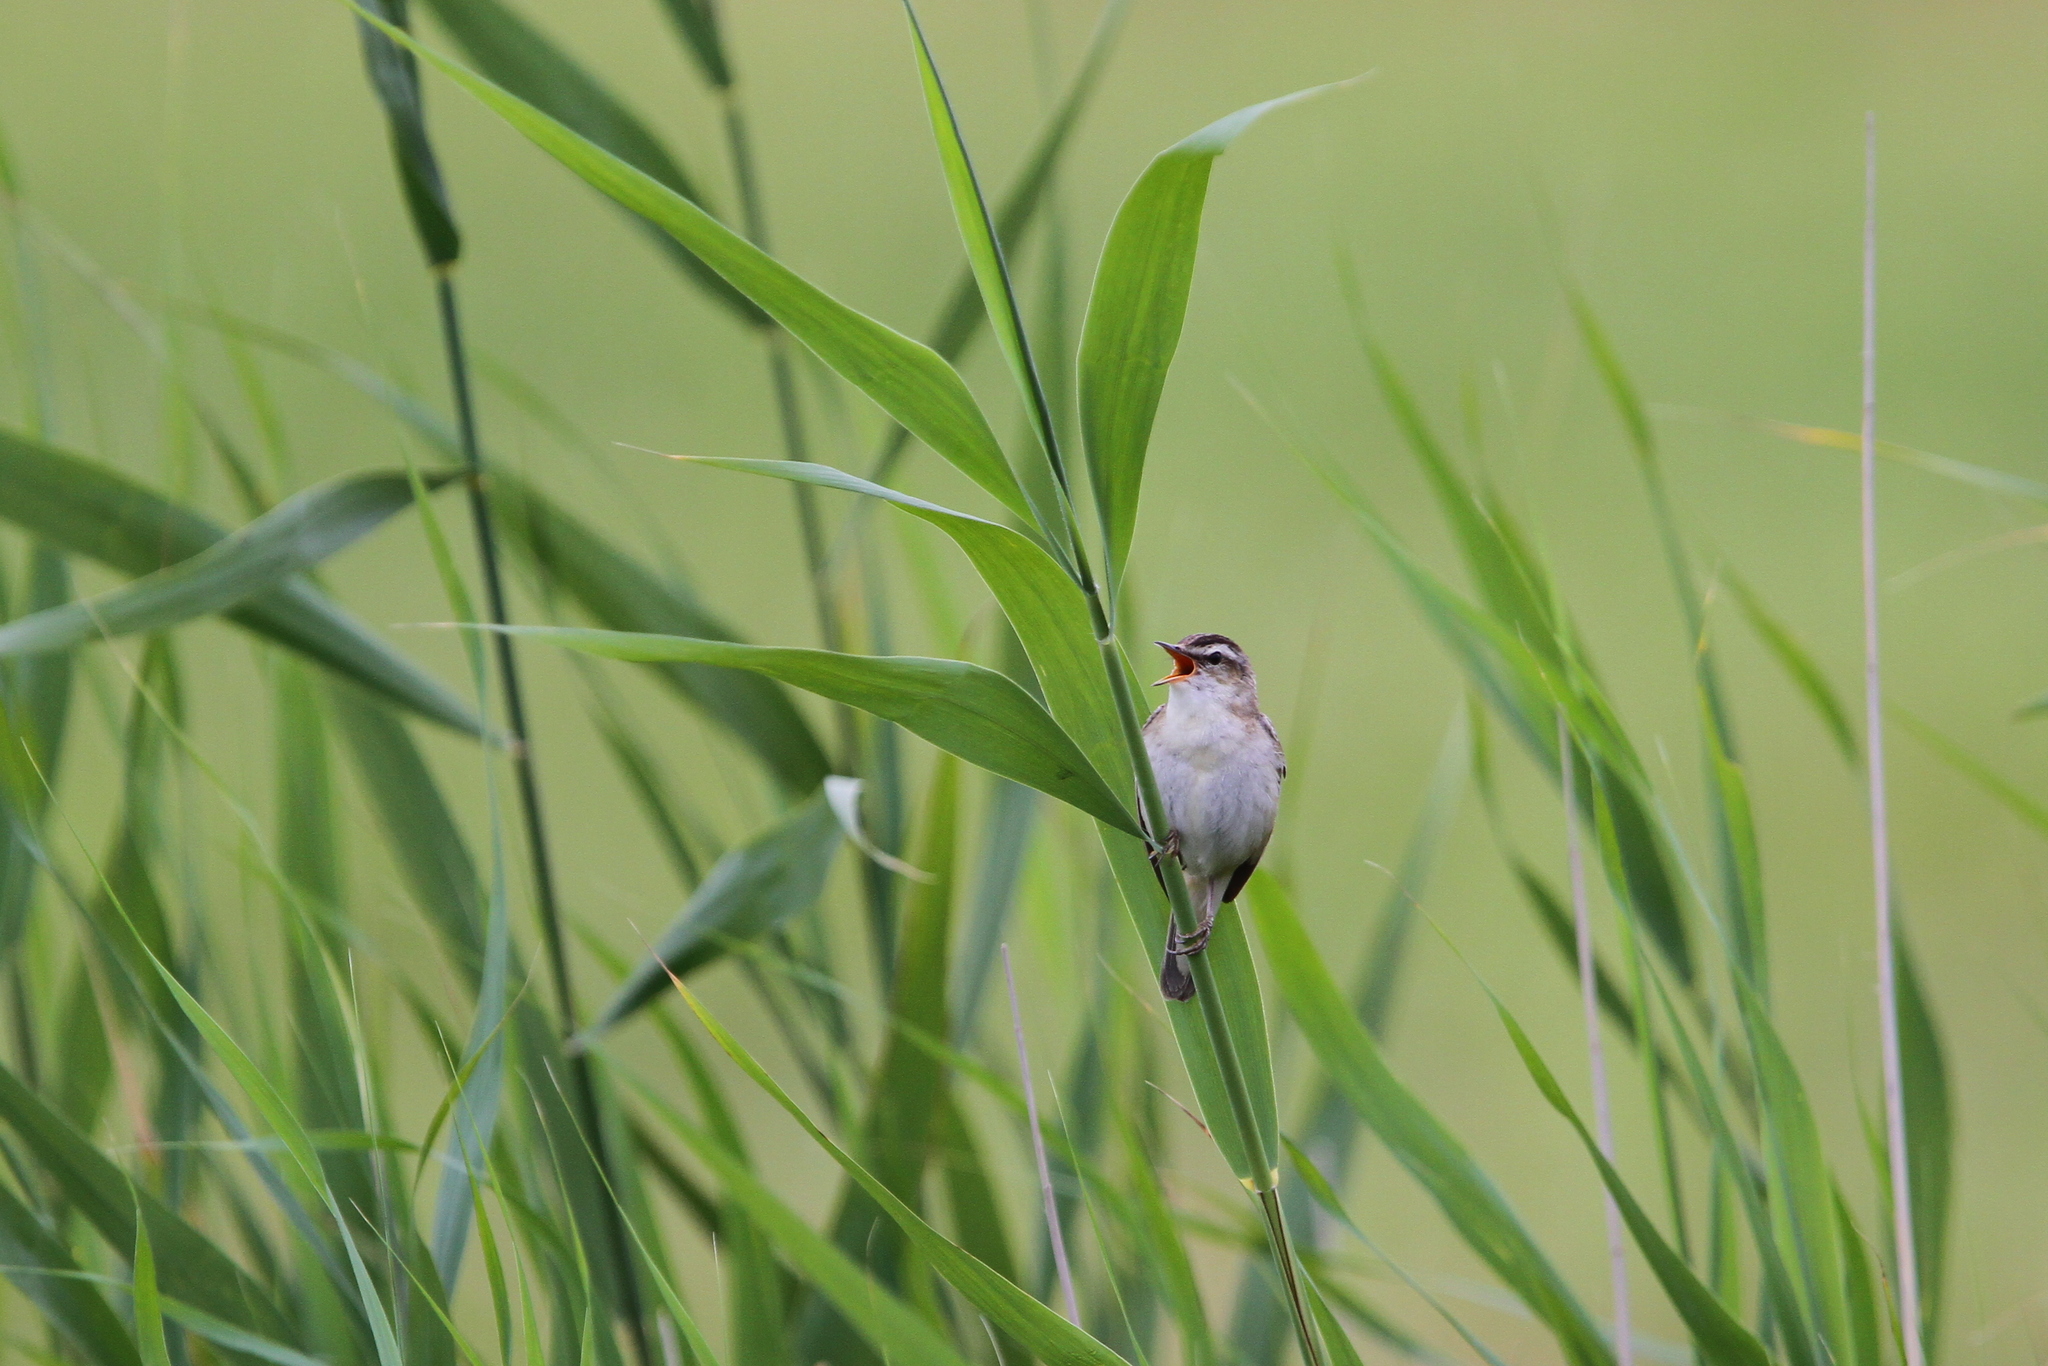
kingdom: Animalia
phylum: Chordata
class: Aves
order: Passeriformes
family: Acrocephalidae
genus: Acrocephalus
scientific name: Acrocephalus schoenobaenus
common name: Sedge warbler
